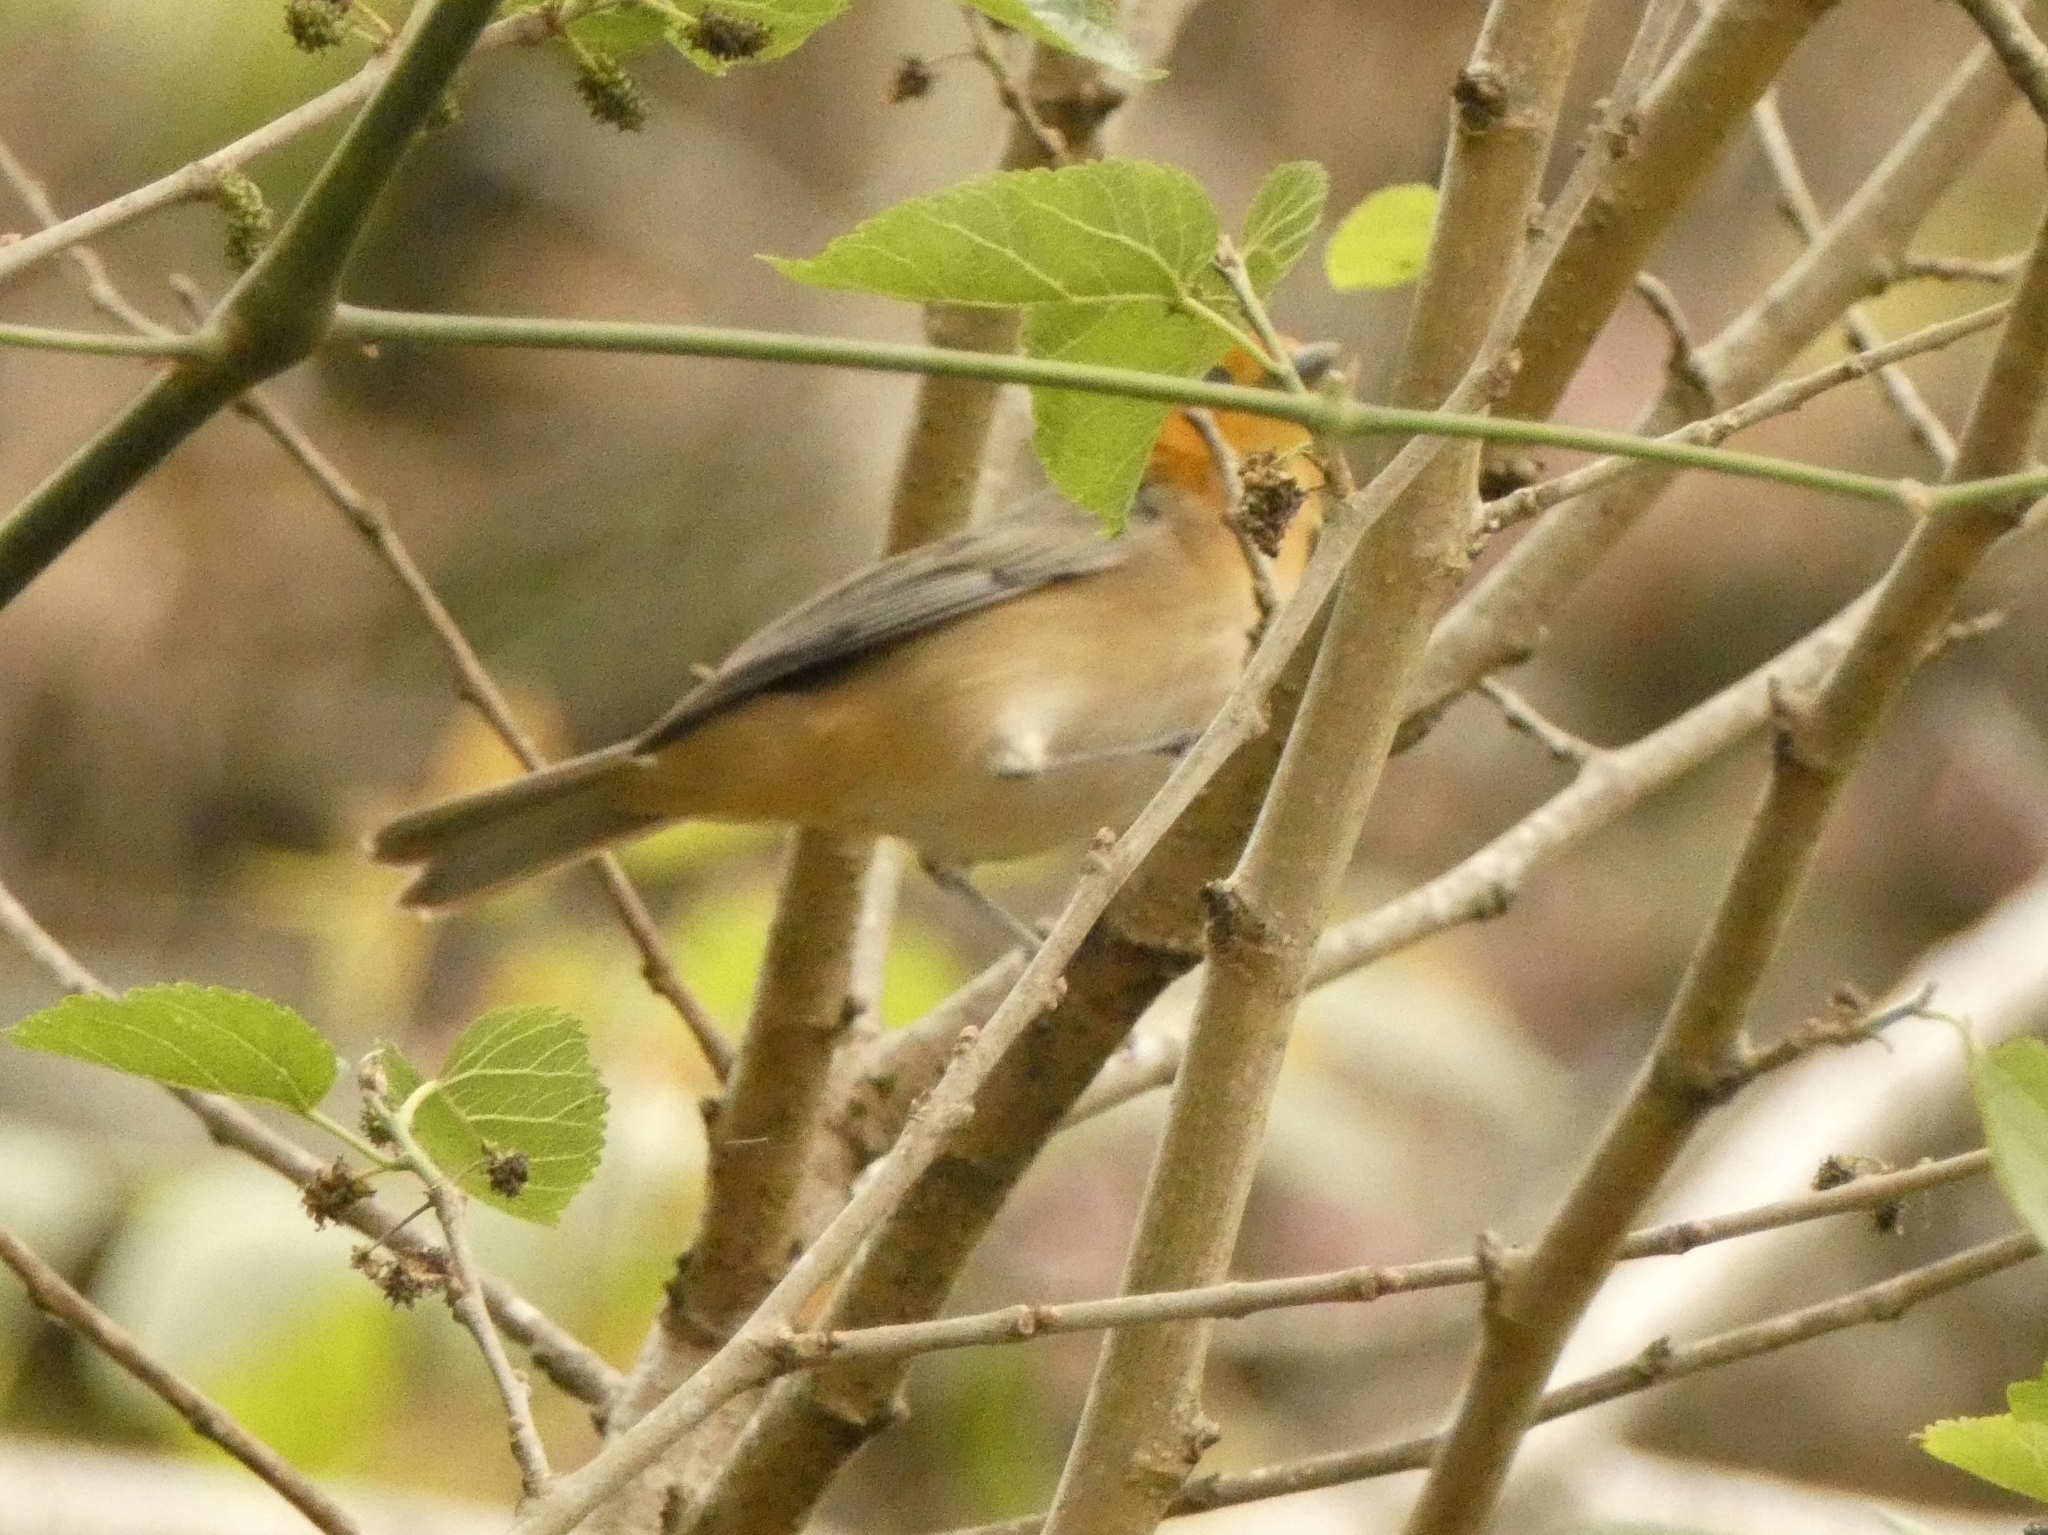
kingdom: Animalia
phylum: Chordata
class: Aves
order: Passeriformes
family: Thraupidae
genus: Thlypopsis
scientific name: Thlypopsis sordida
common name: Orange-headed tanager
